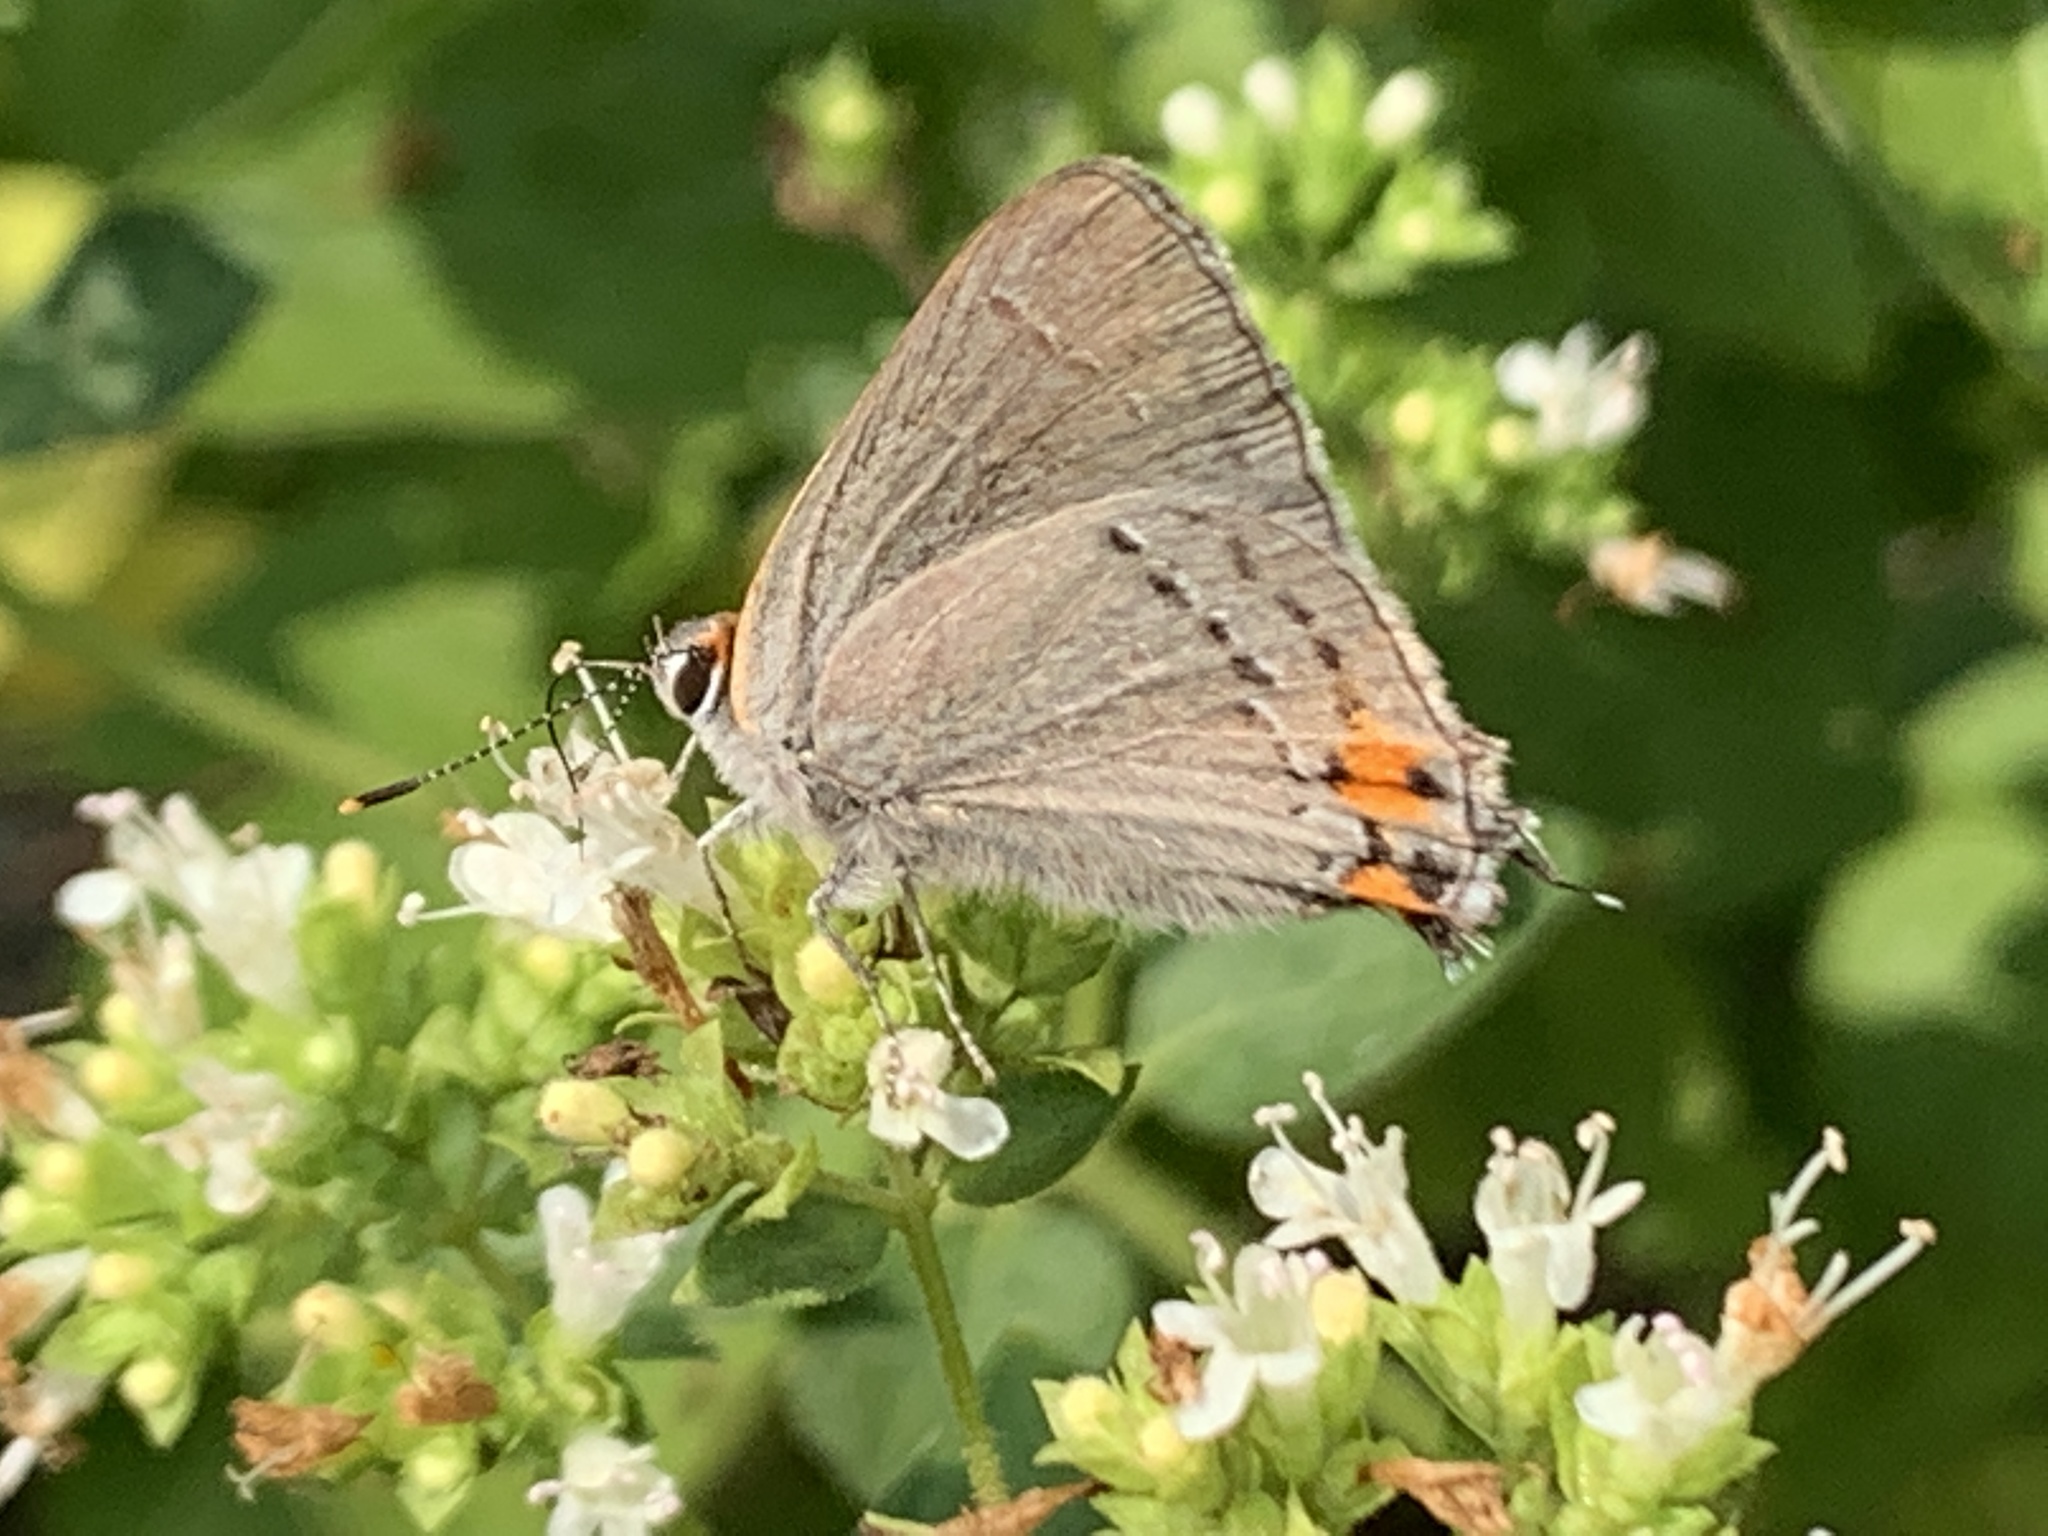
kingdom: Animalia
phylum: Arthropoda
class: Insecta
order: Lepidoptera
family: Lycaenidae
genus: Strymon
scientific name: Strymon melinus
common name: Gray hairstreak
